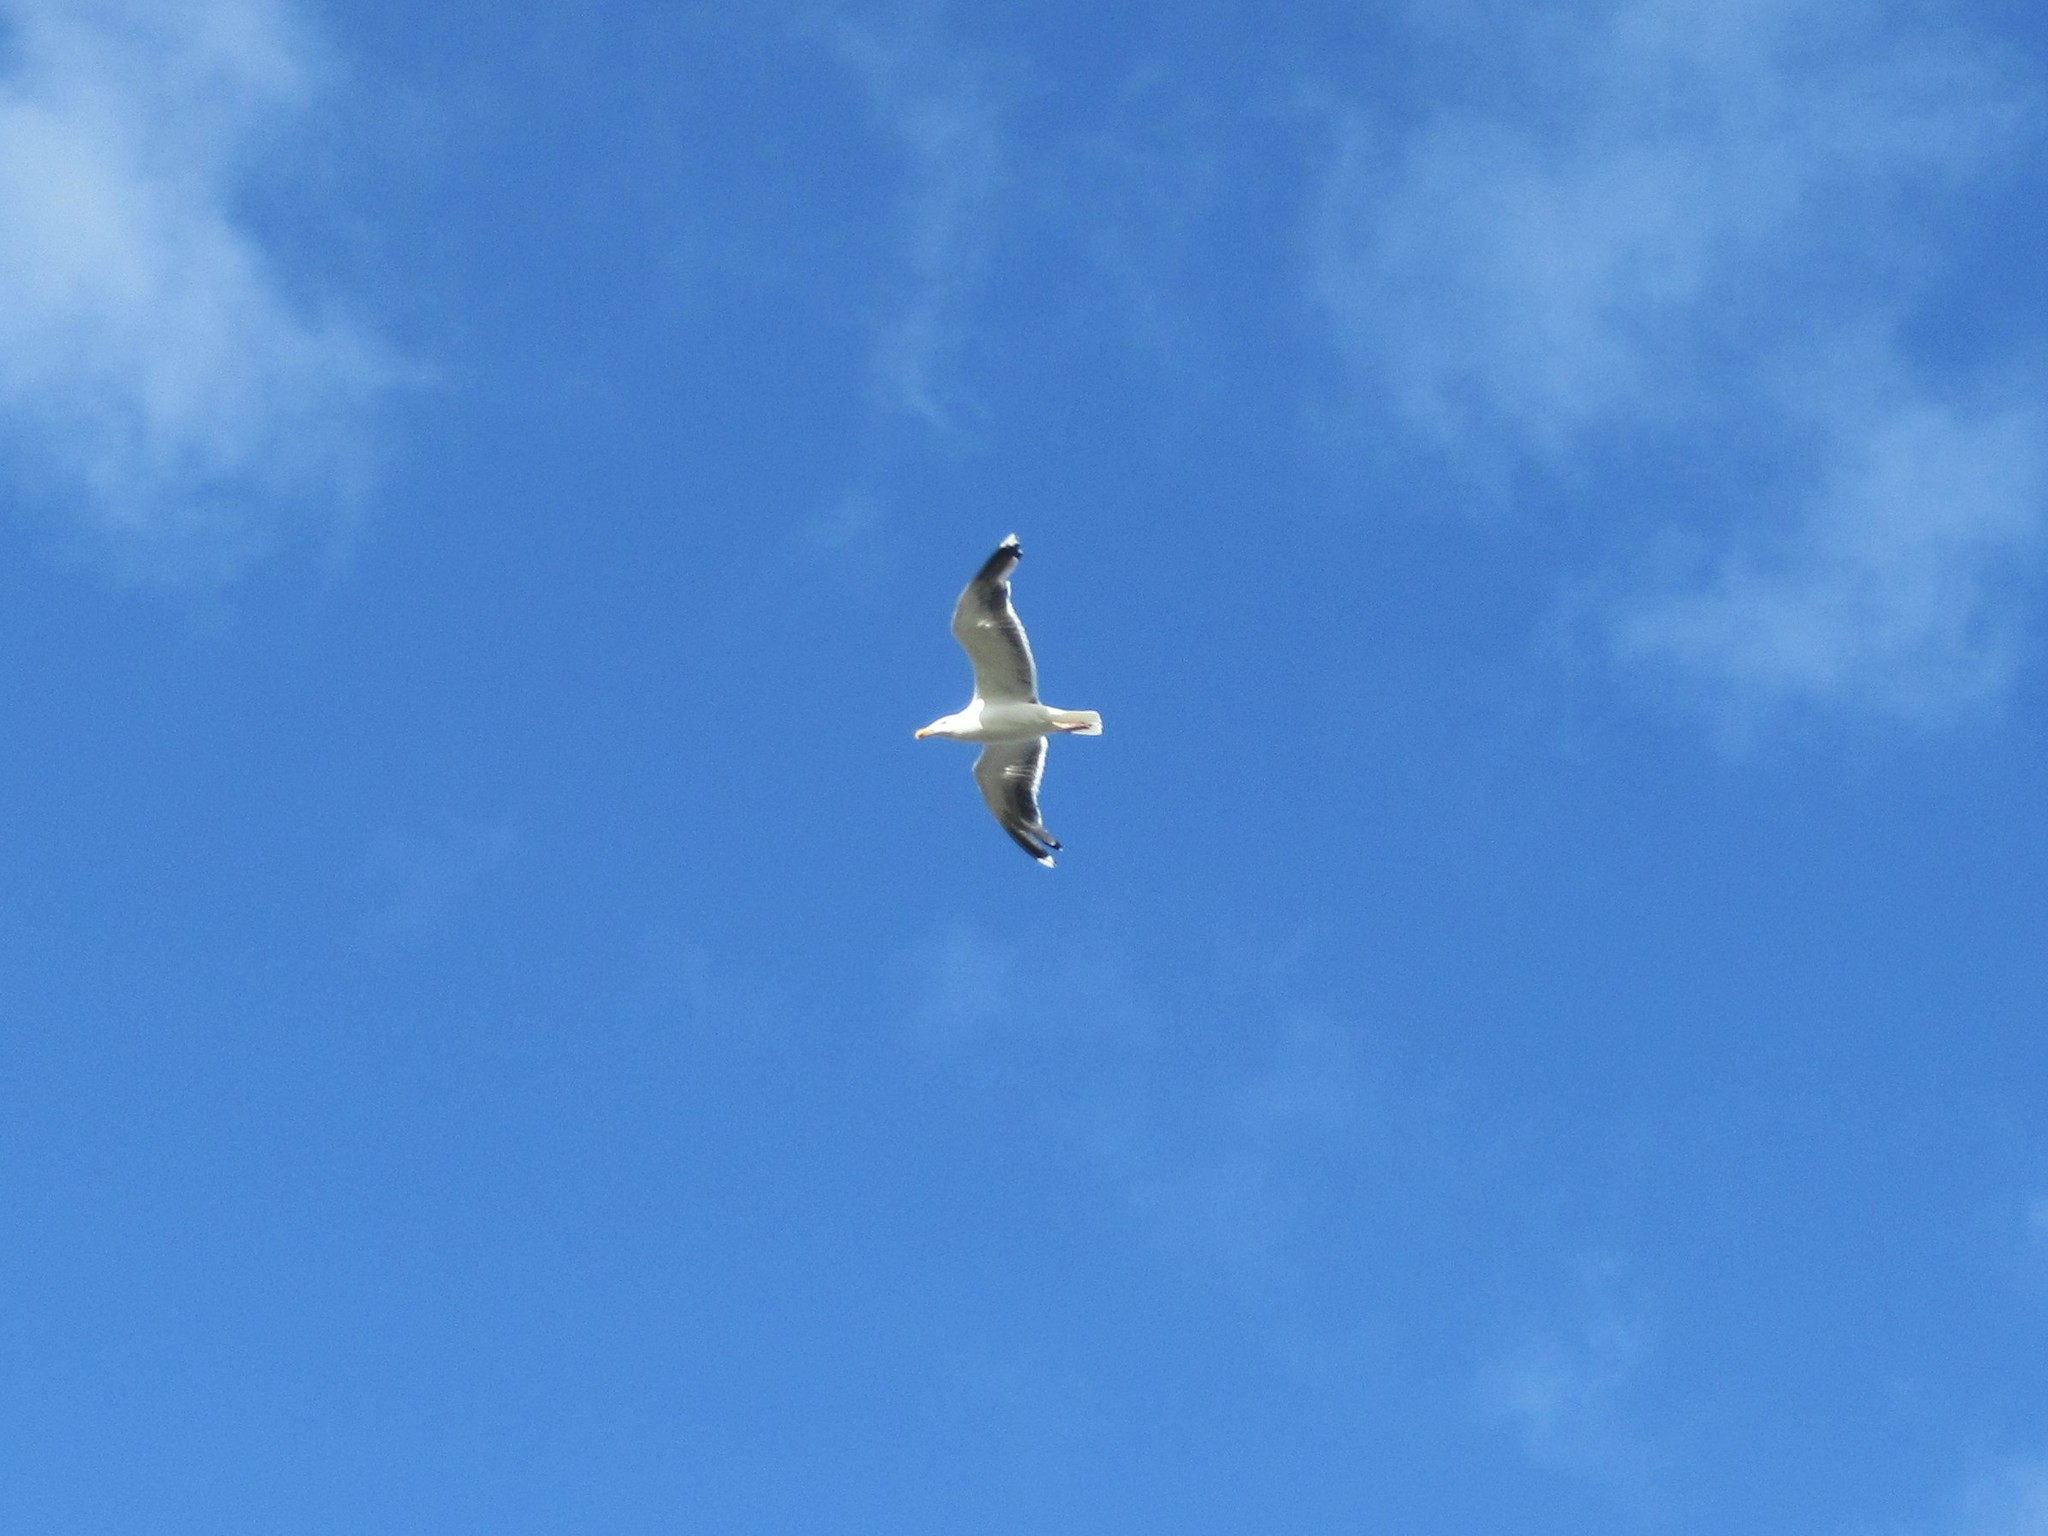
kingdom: Animalia
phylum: Chordata
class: Aves
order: Charadriiformes
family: Laridae
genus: Larus
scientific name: Larus argentatus
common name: Herring gull
